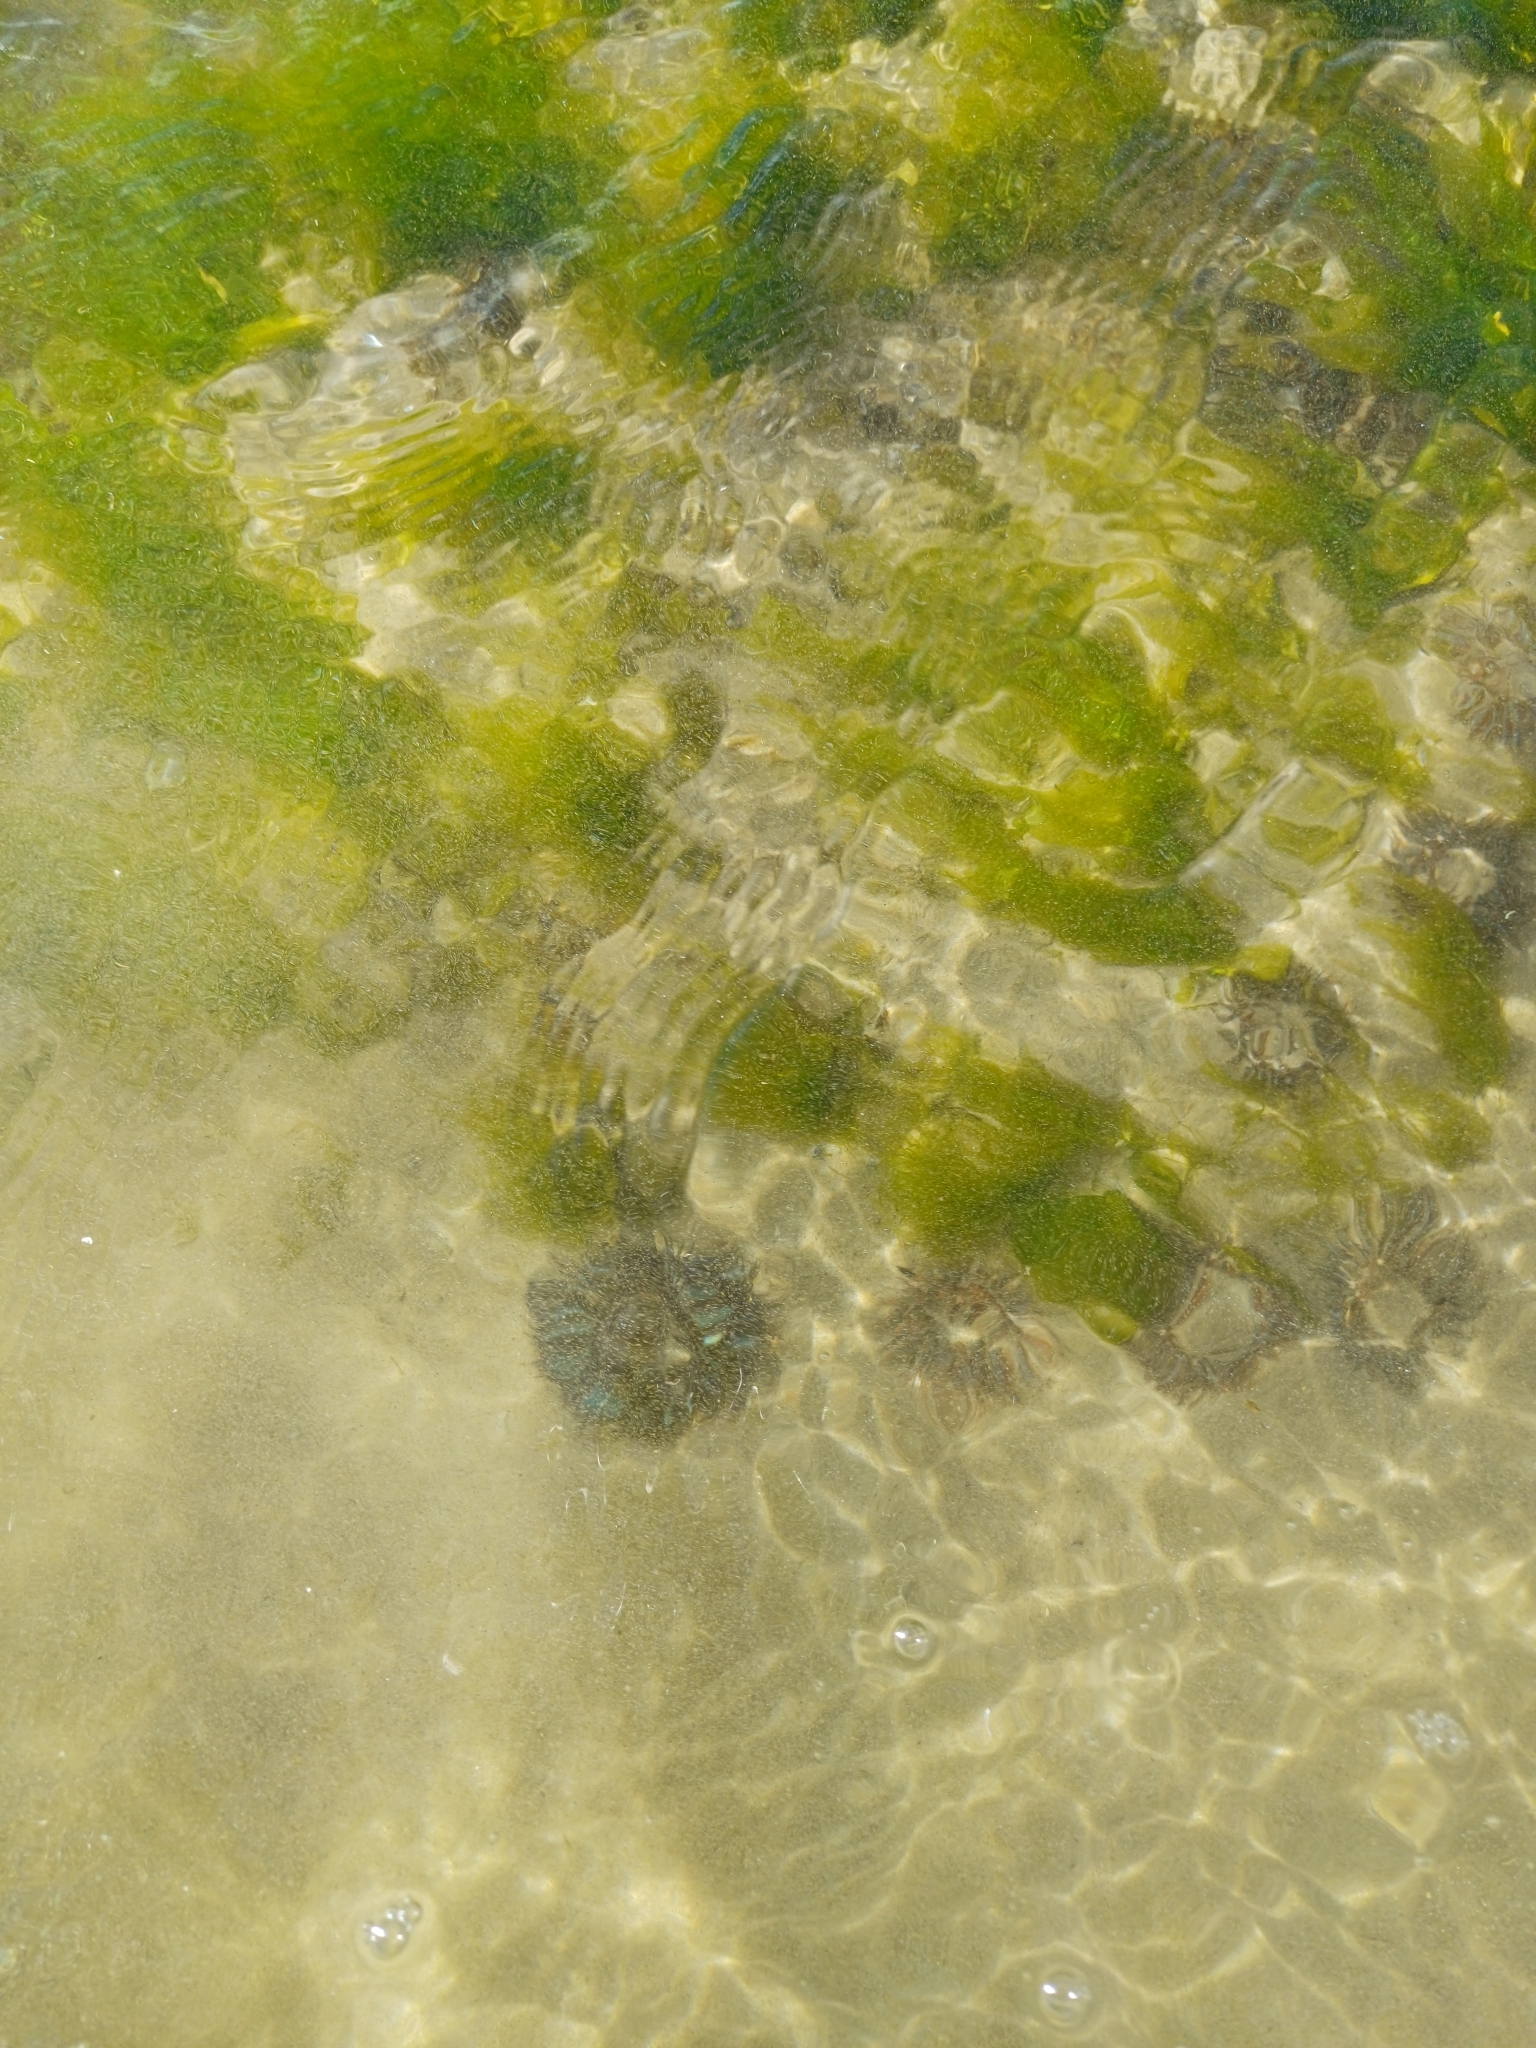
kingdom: Animalia
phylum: Cnidaria
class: Anthozoa
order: Actiniaria
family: Actiniidae
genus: Bunodosoma
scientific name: Bunodosoma cangicum
